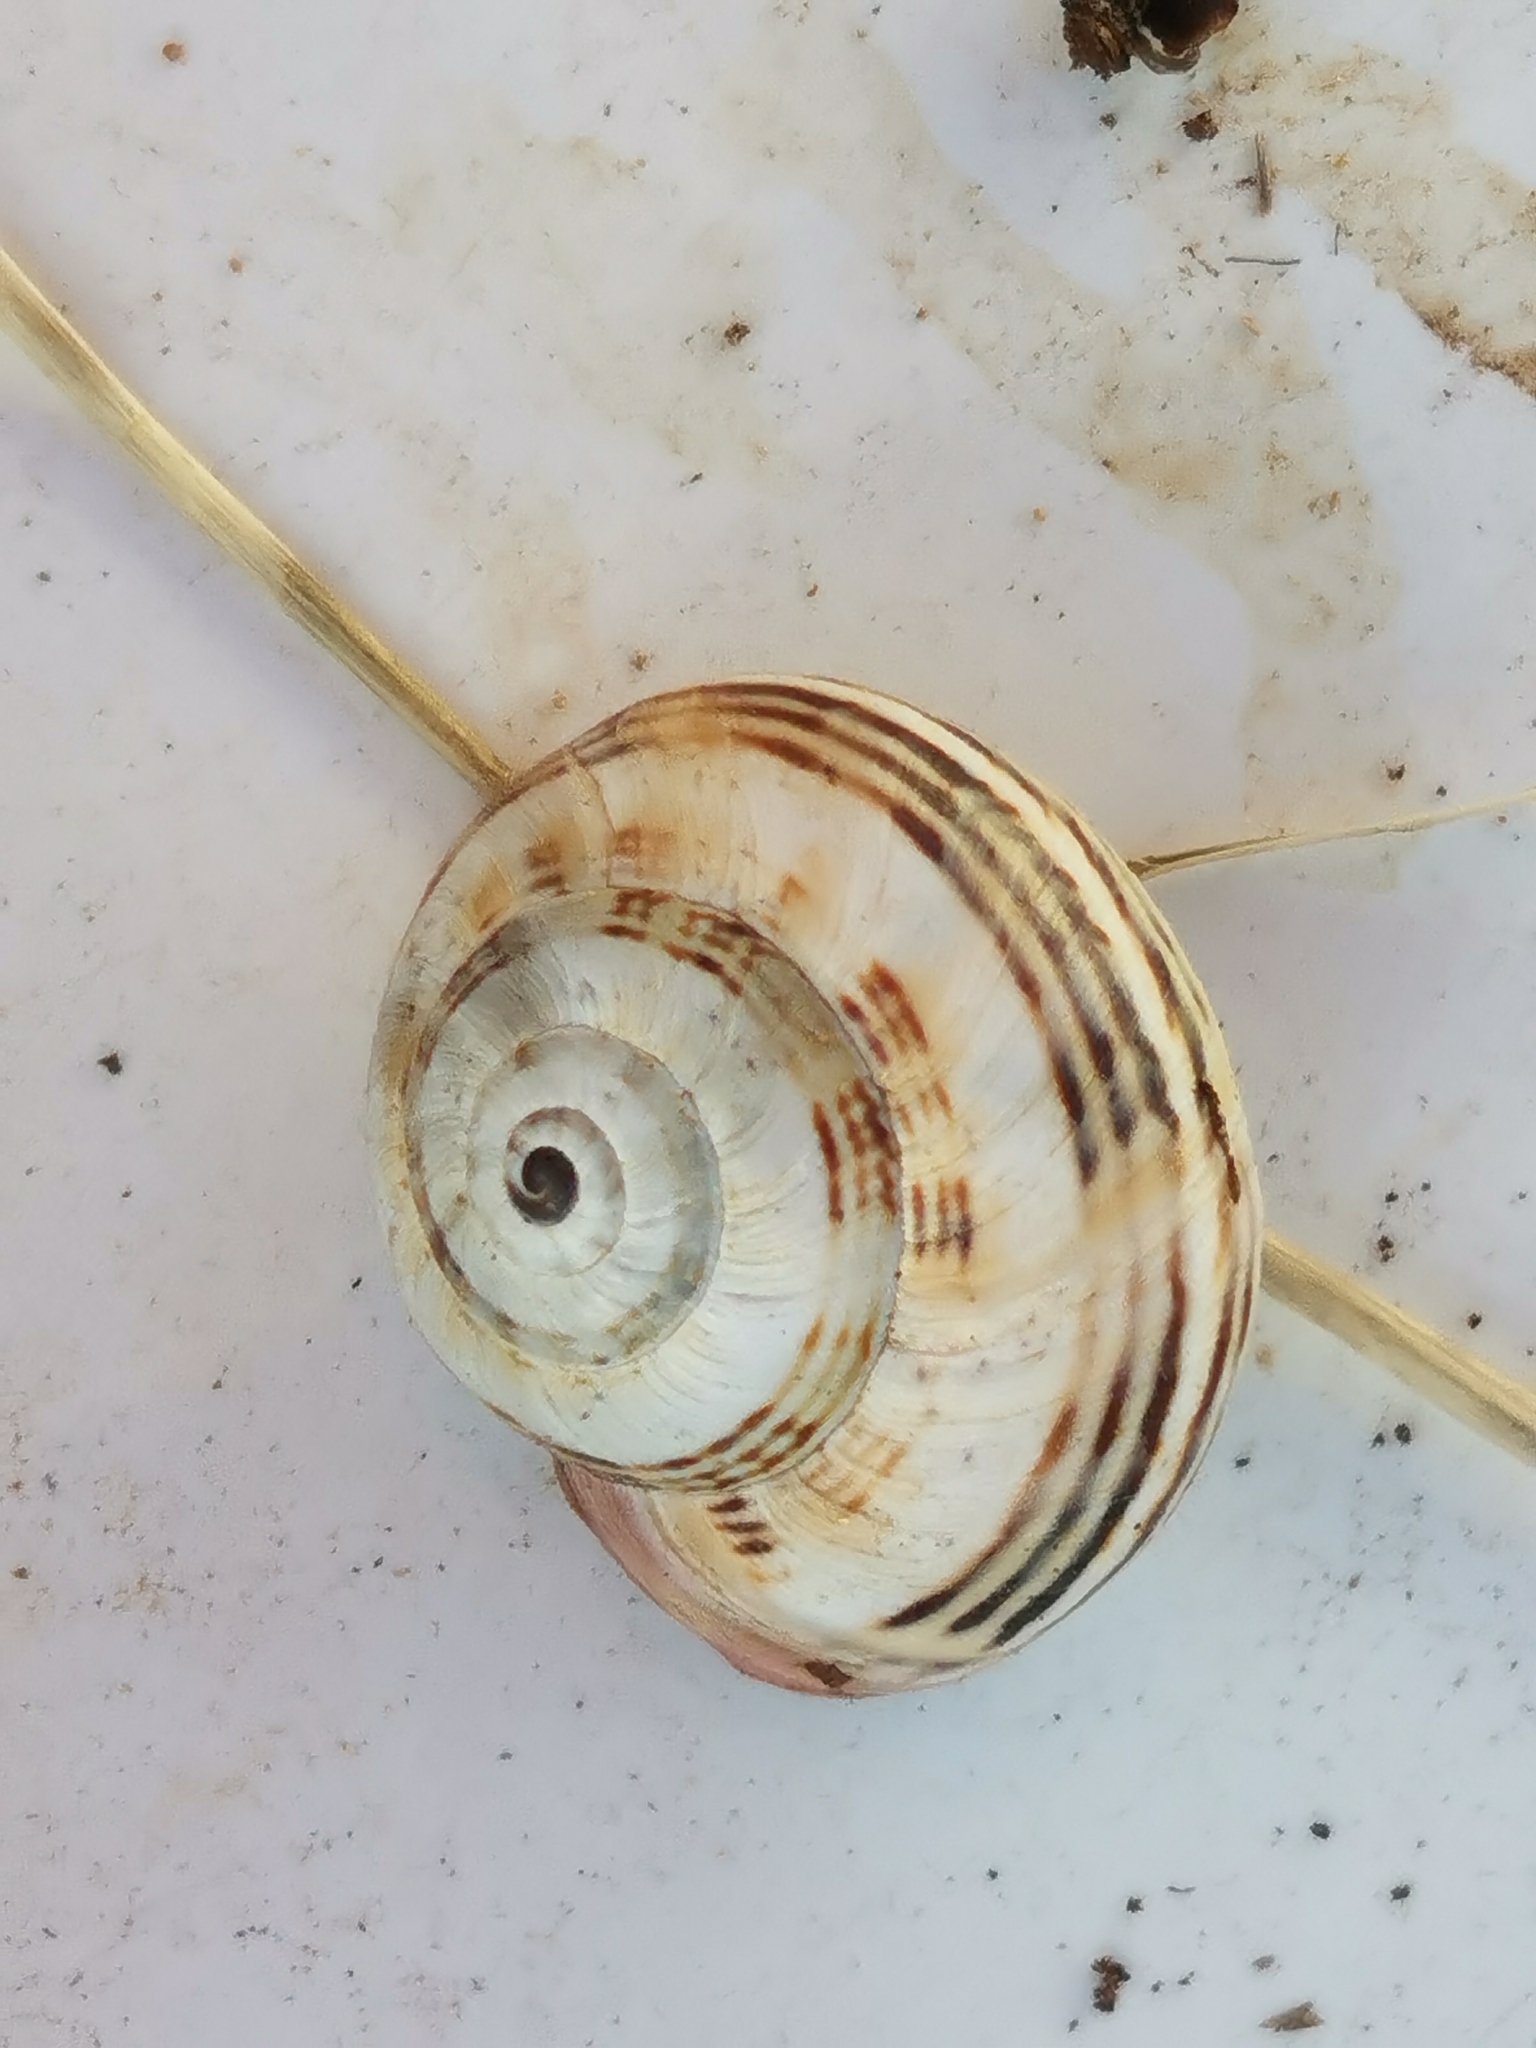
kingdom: Animalia
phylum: Mollusca
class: Gastropoda
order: Stylommatophora
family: Helicidae
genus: Theba
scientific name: Theba pisana
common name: White snail
